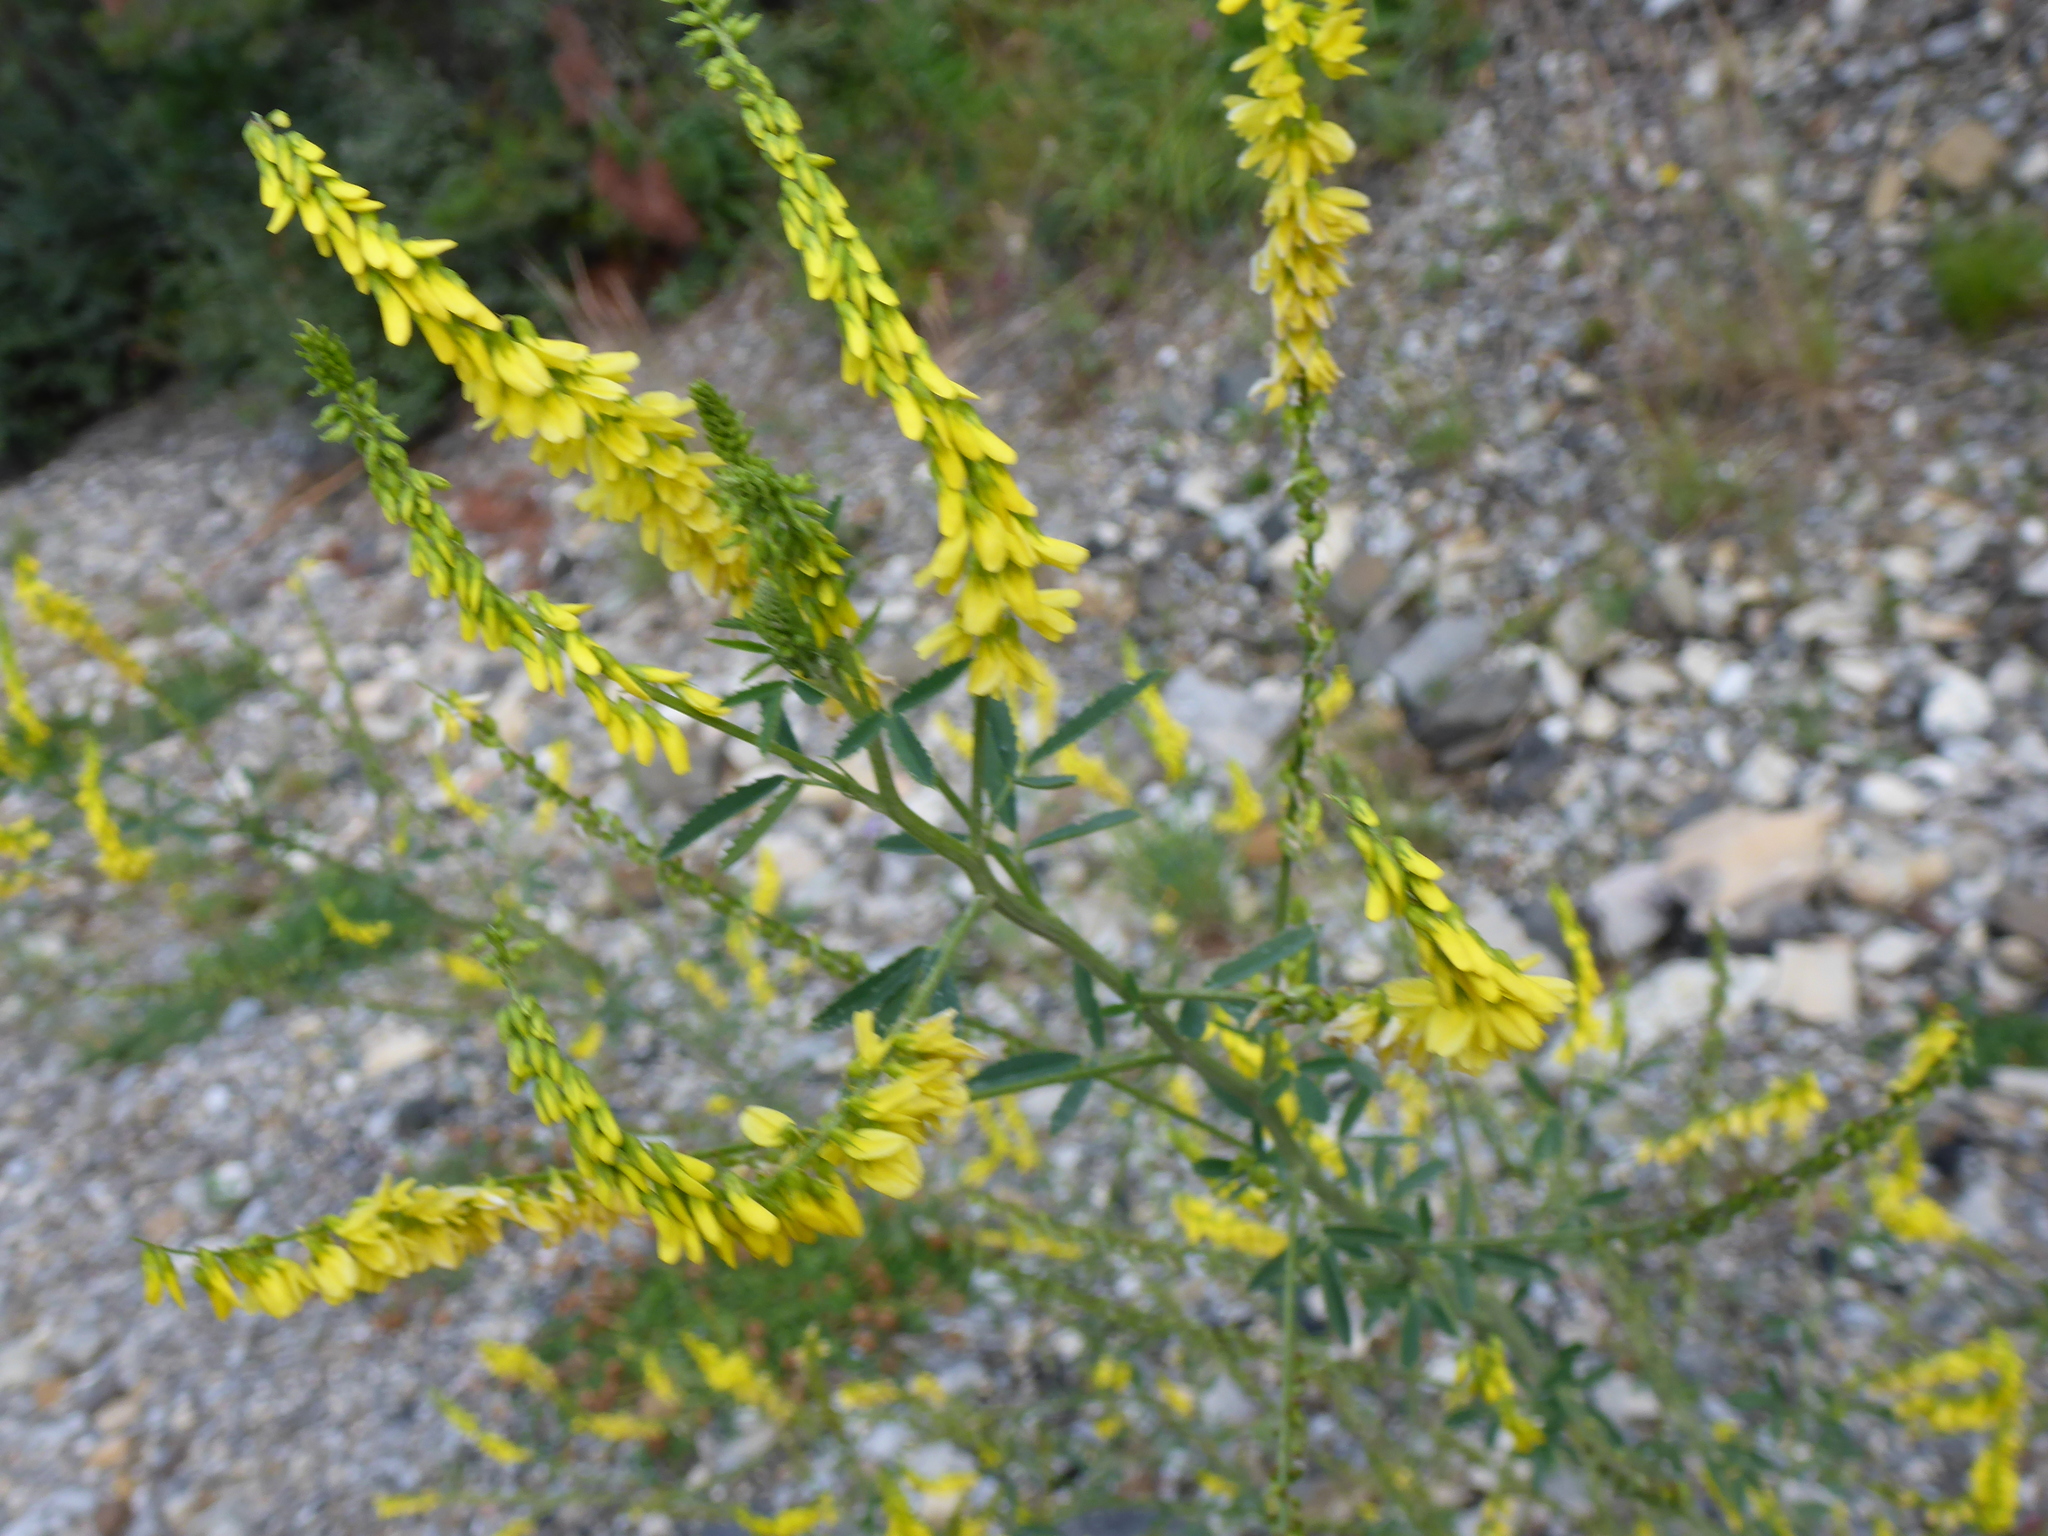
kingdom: Plantae
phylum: Tracheophyta
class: Magnoliopsida
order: Fabales
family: Fabaceae
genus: Melilotus
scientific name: Melilotus officinalis
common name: Sweetclover
